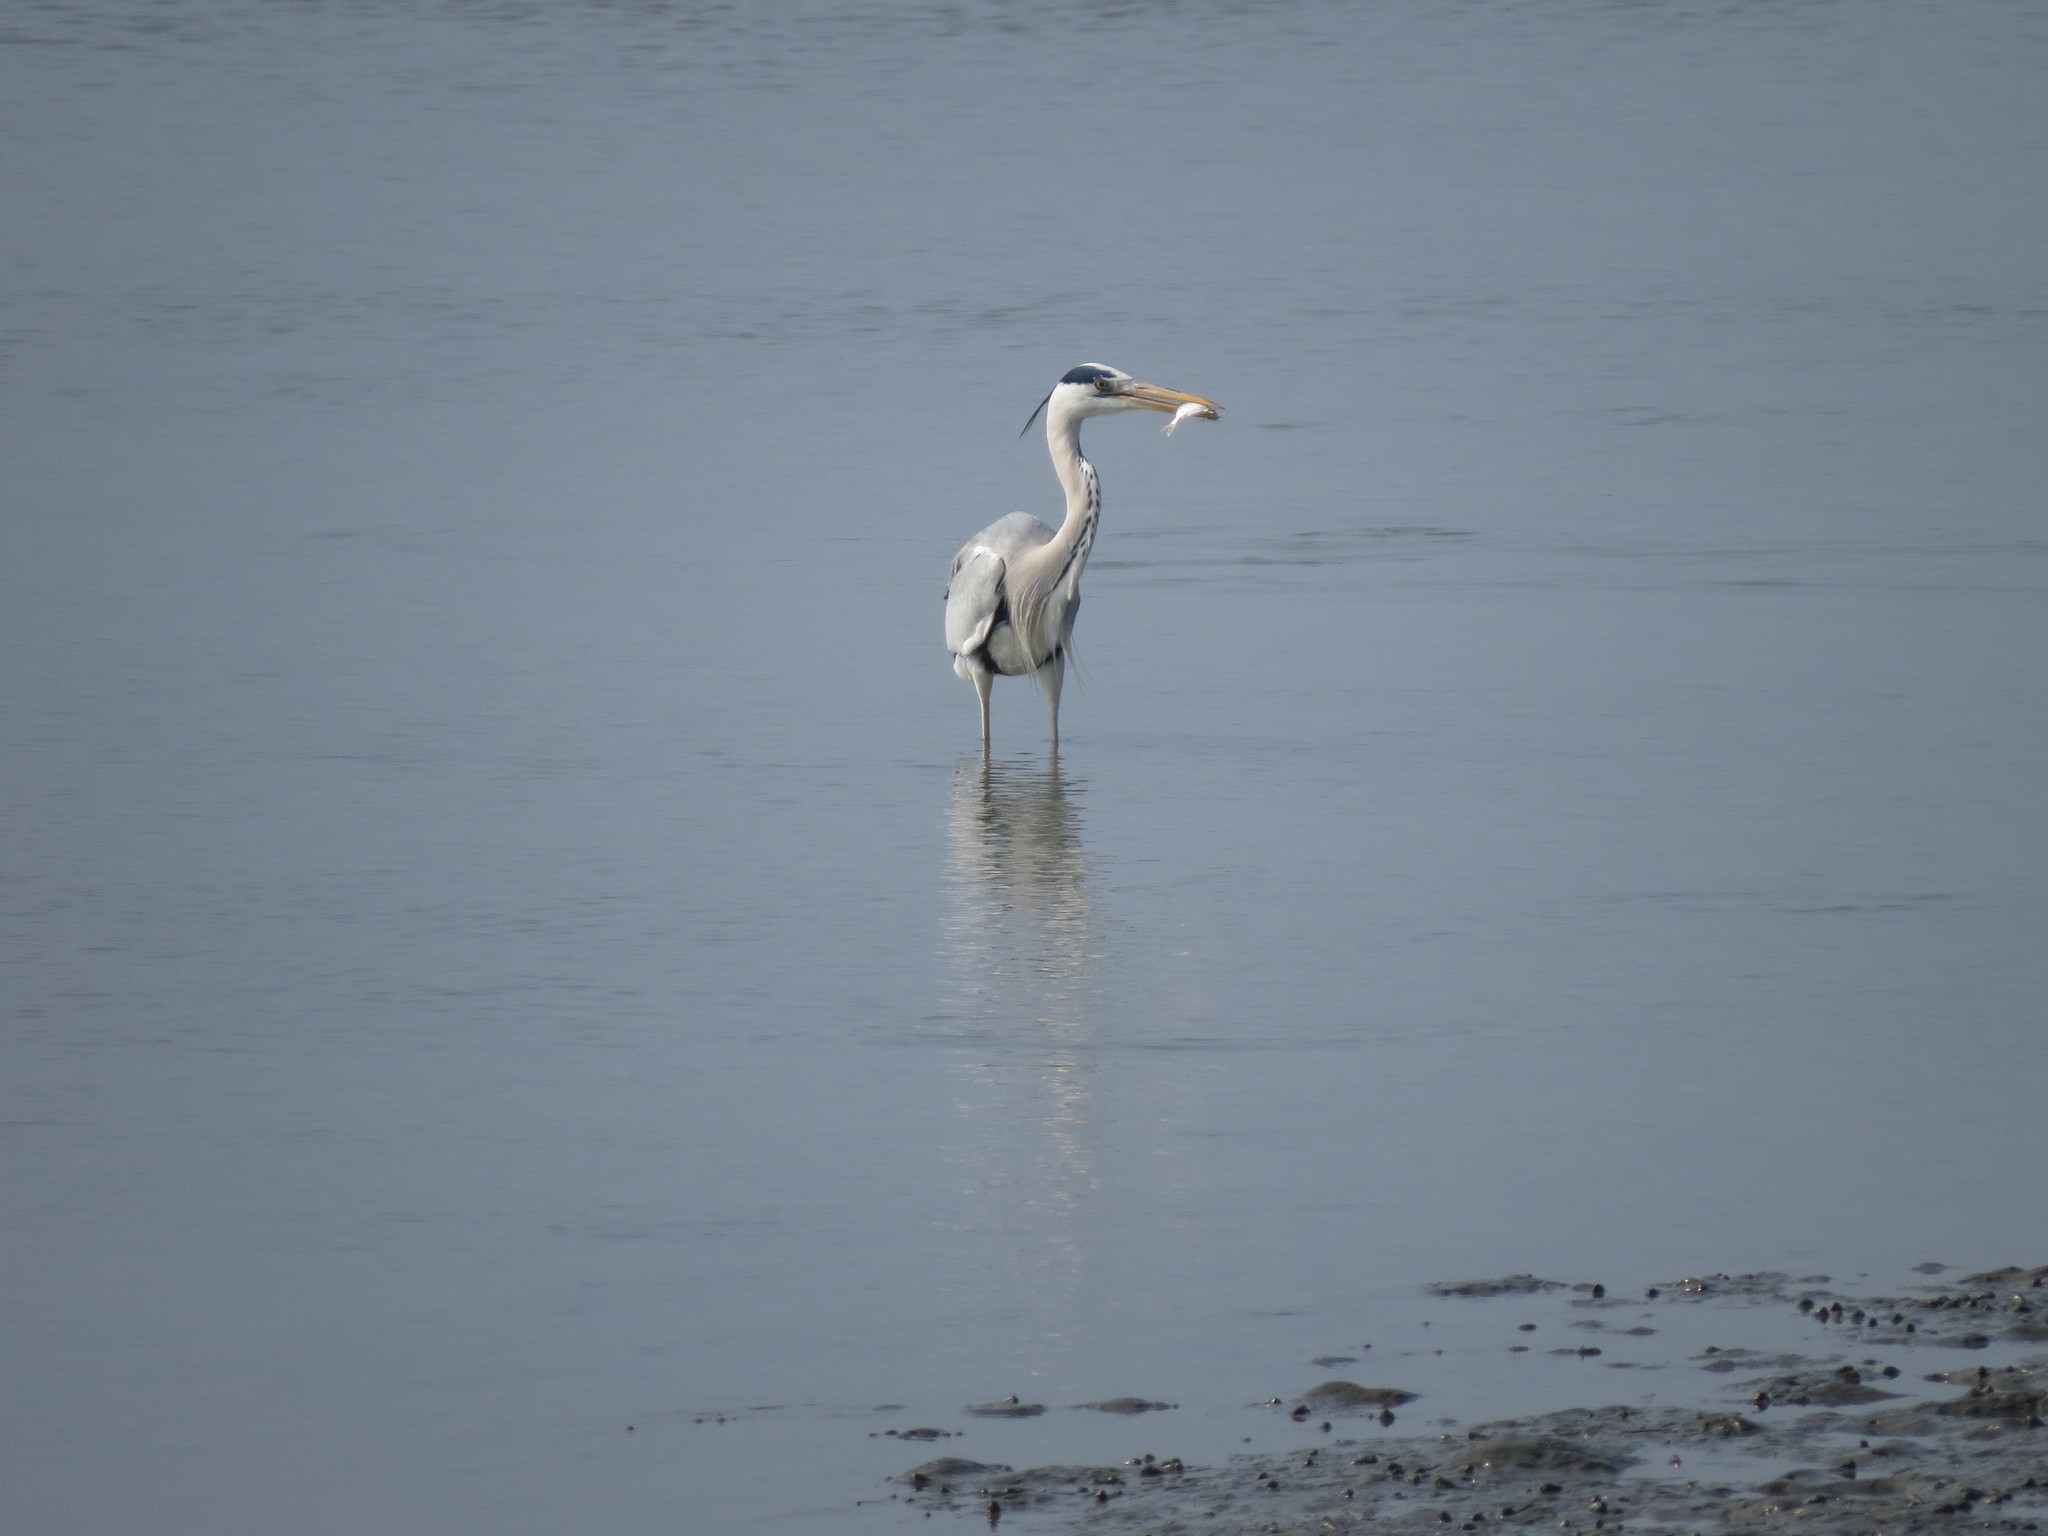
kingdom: Animalia
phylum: Chordata
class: Aves
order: Pelecaniformes
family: Ardeidae
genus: Ardea
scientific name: Ardea cinerea
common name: Grey heron
